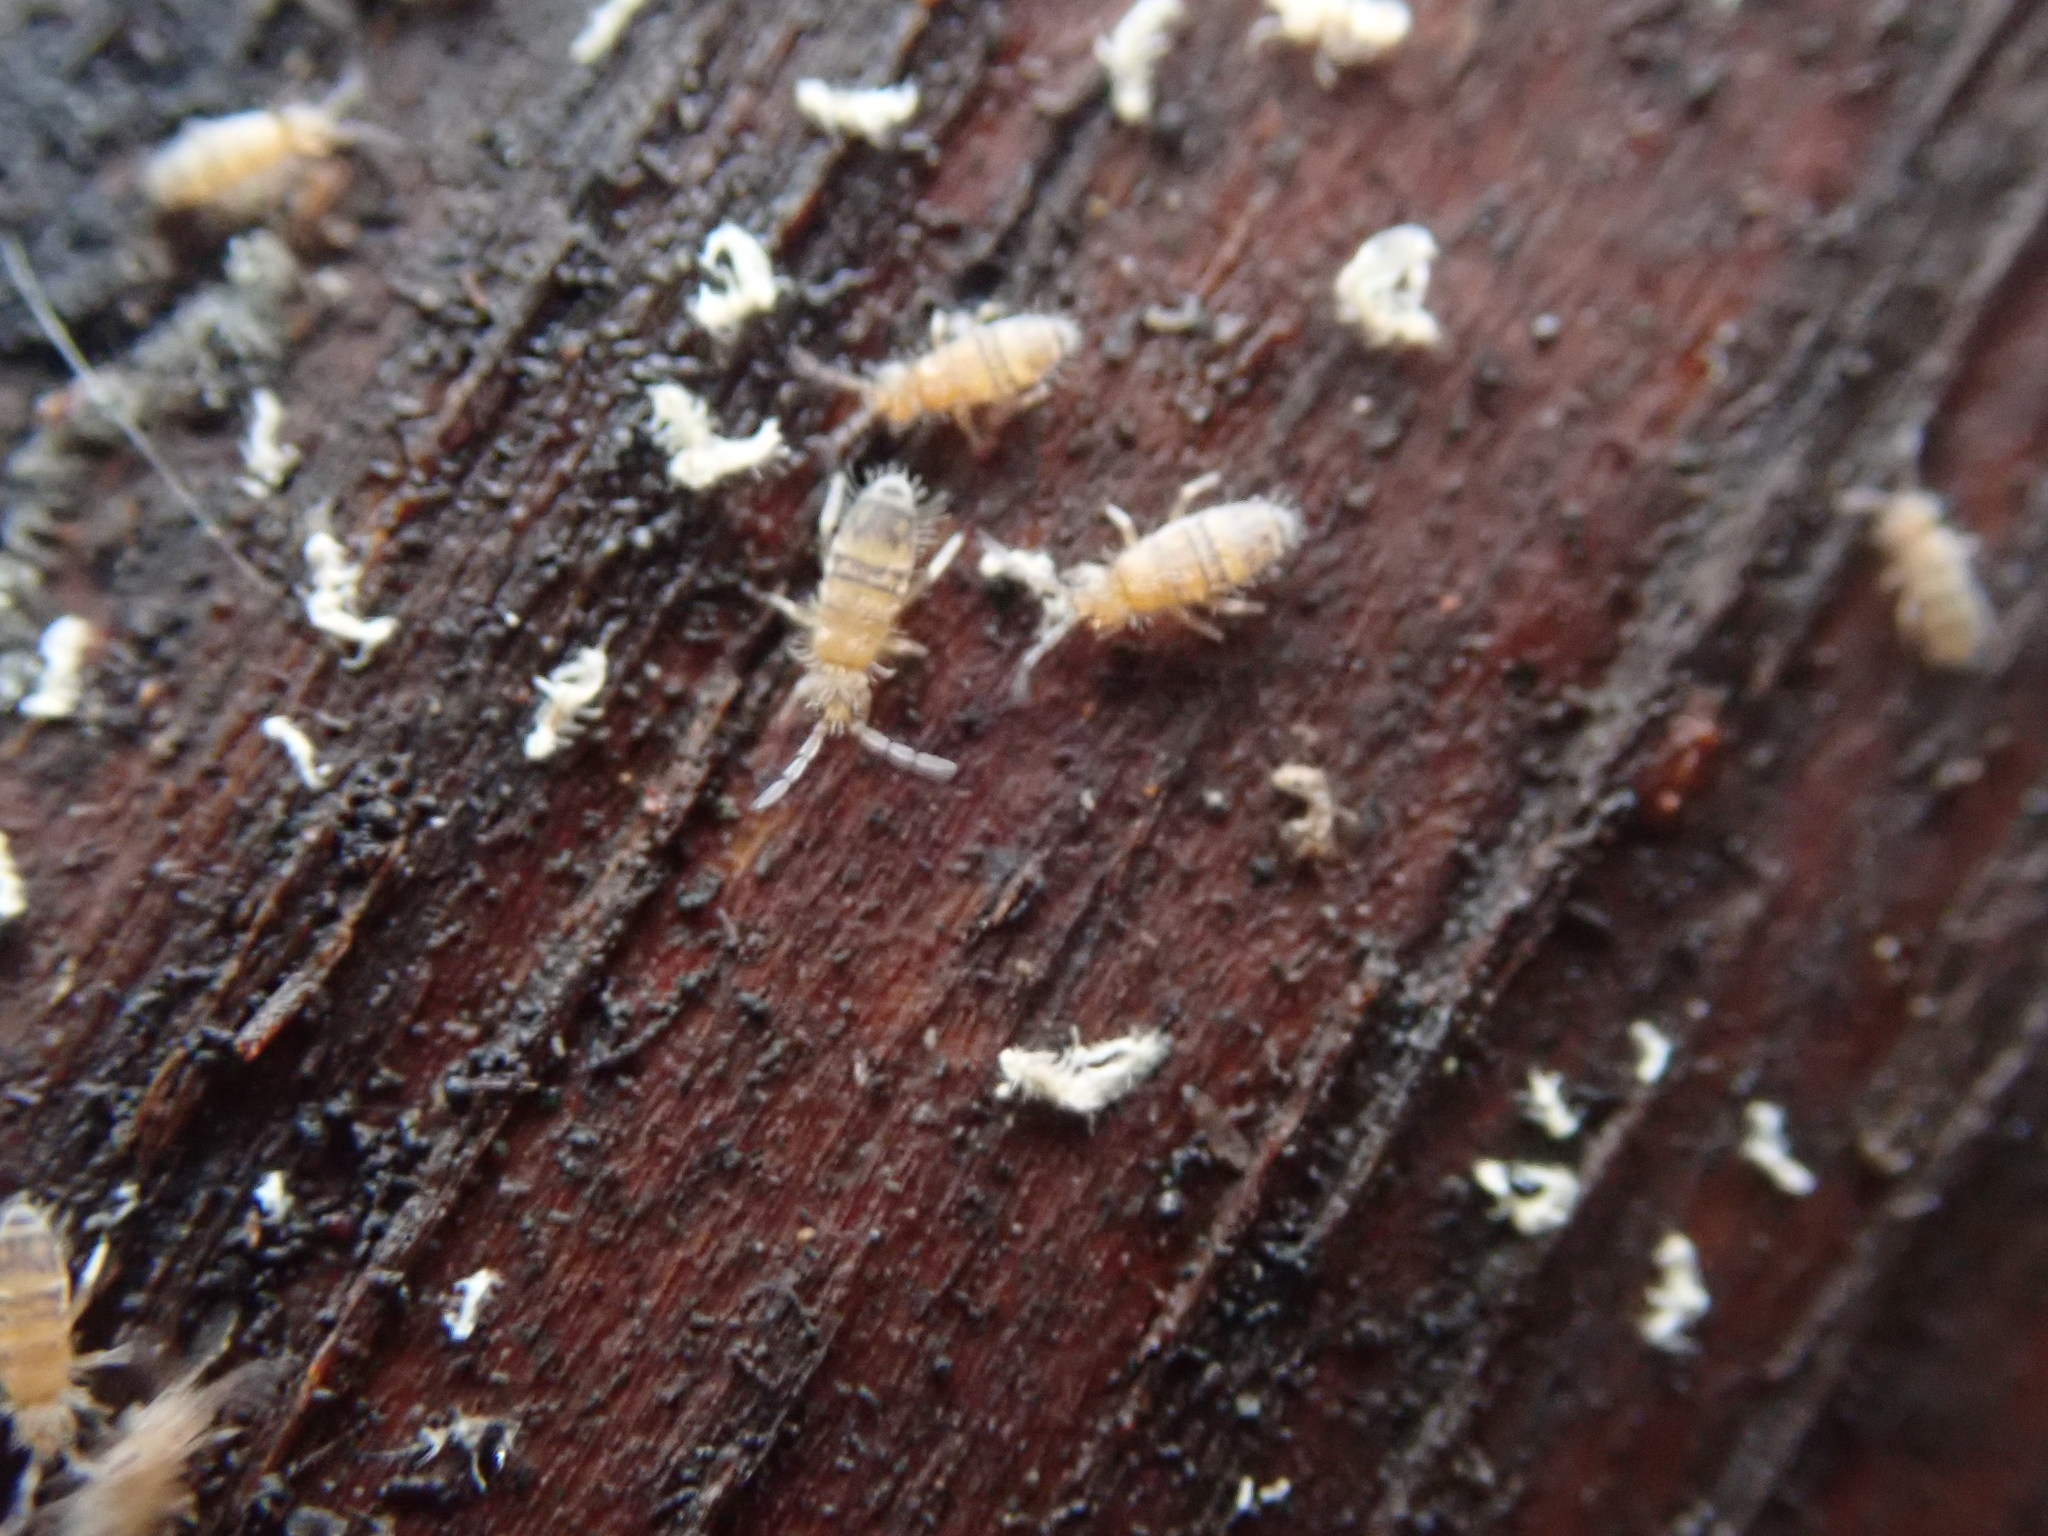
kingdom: Animalia
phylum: Arthropoda
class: Collembola
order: Entomobryomorpha
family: Entomobryidae
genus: Entomobrya
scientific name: Entomobrya assuta
